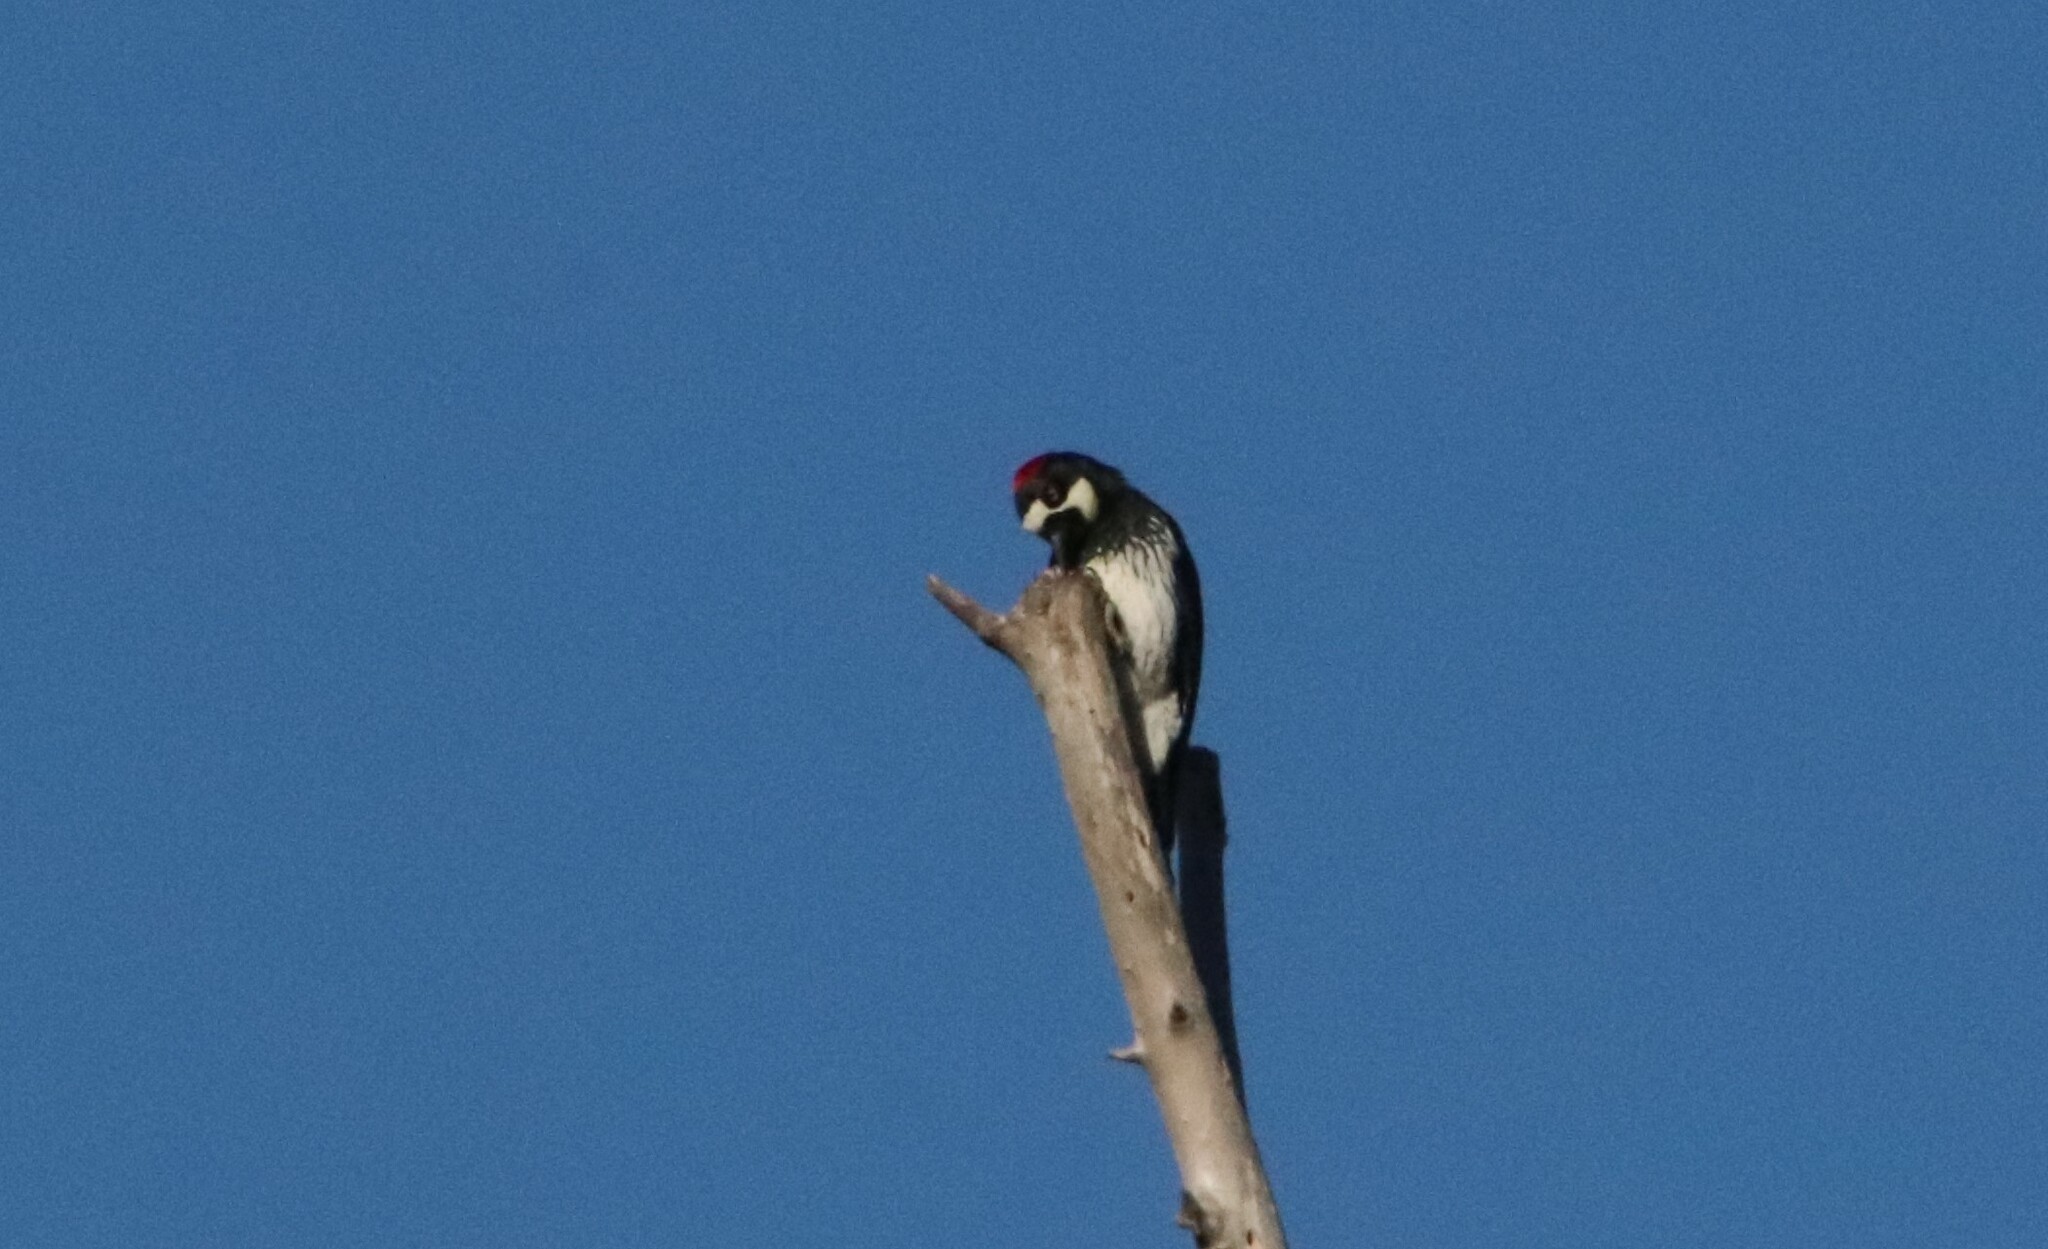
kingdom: Animalia
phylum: Chordata
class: Aves
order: Piciformes
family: Picidae
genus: Melanerpes
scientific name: Melanerpes formicivorus
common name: Acorn woodpecker
